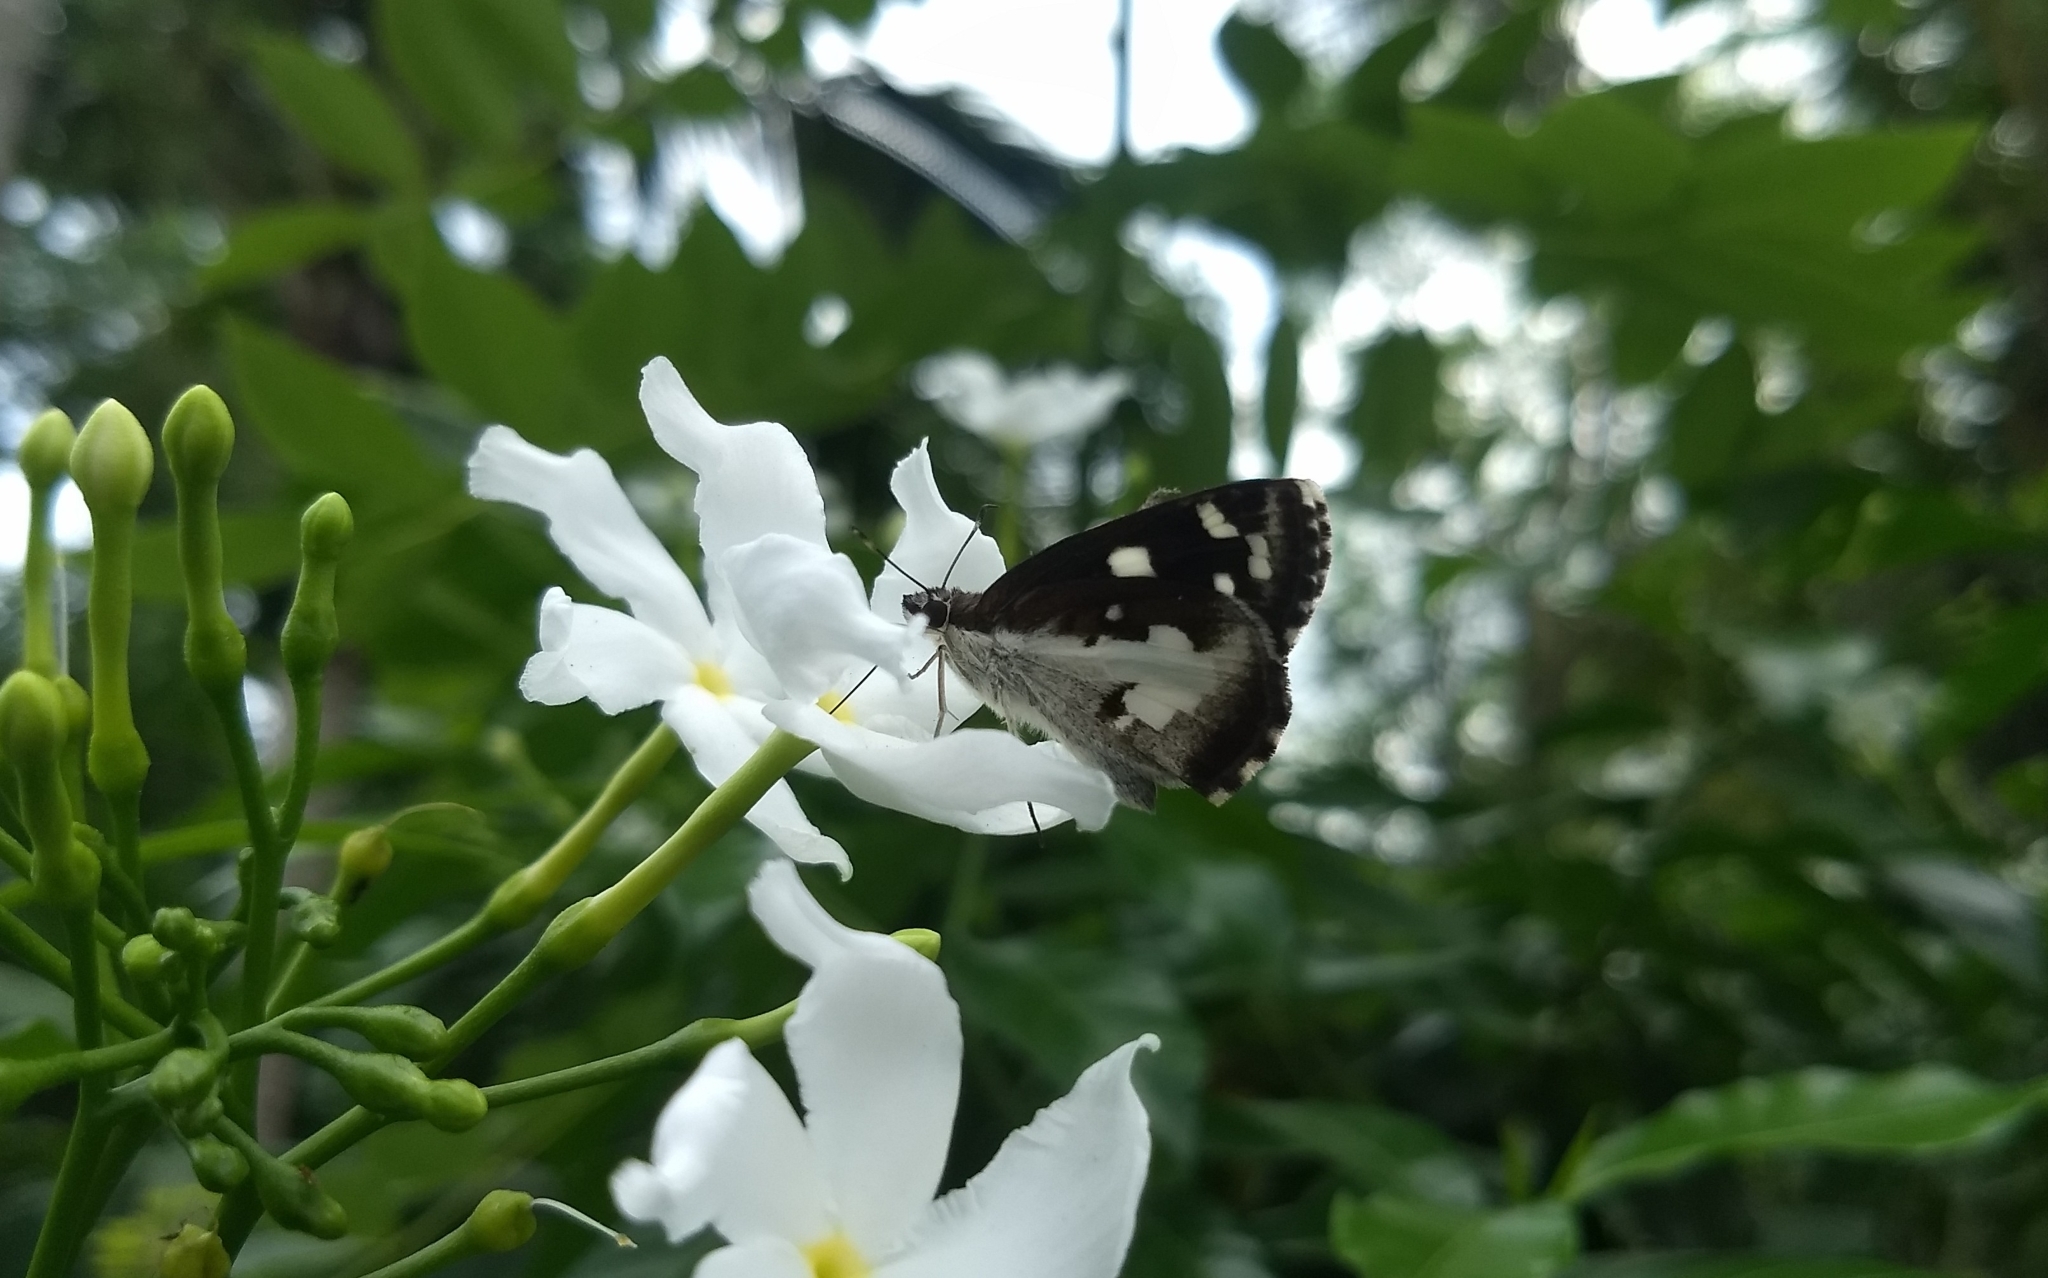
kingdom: Animalia
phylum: Arthropoda
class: Insecta
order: Lepidoptera
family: Hesperiidae
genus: Udaspes
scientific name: Udaspes folus
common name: Grass demon
